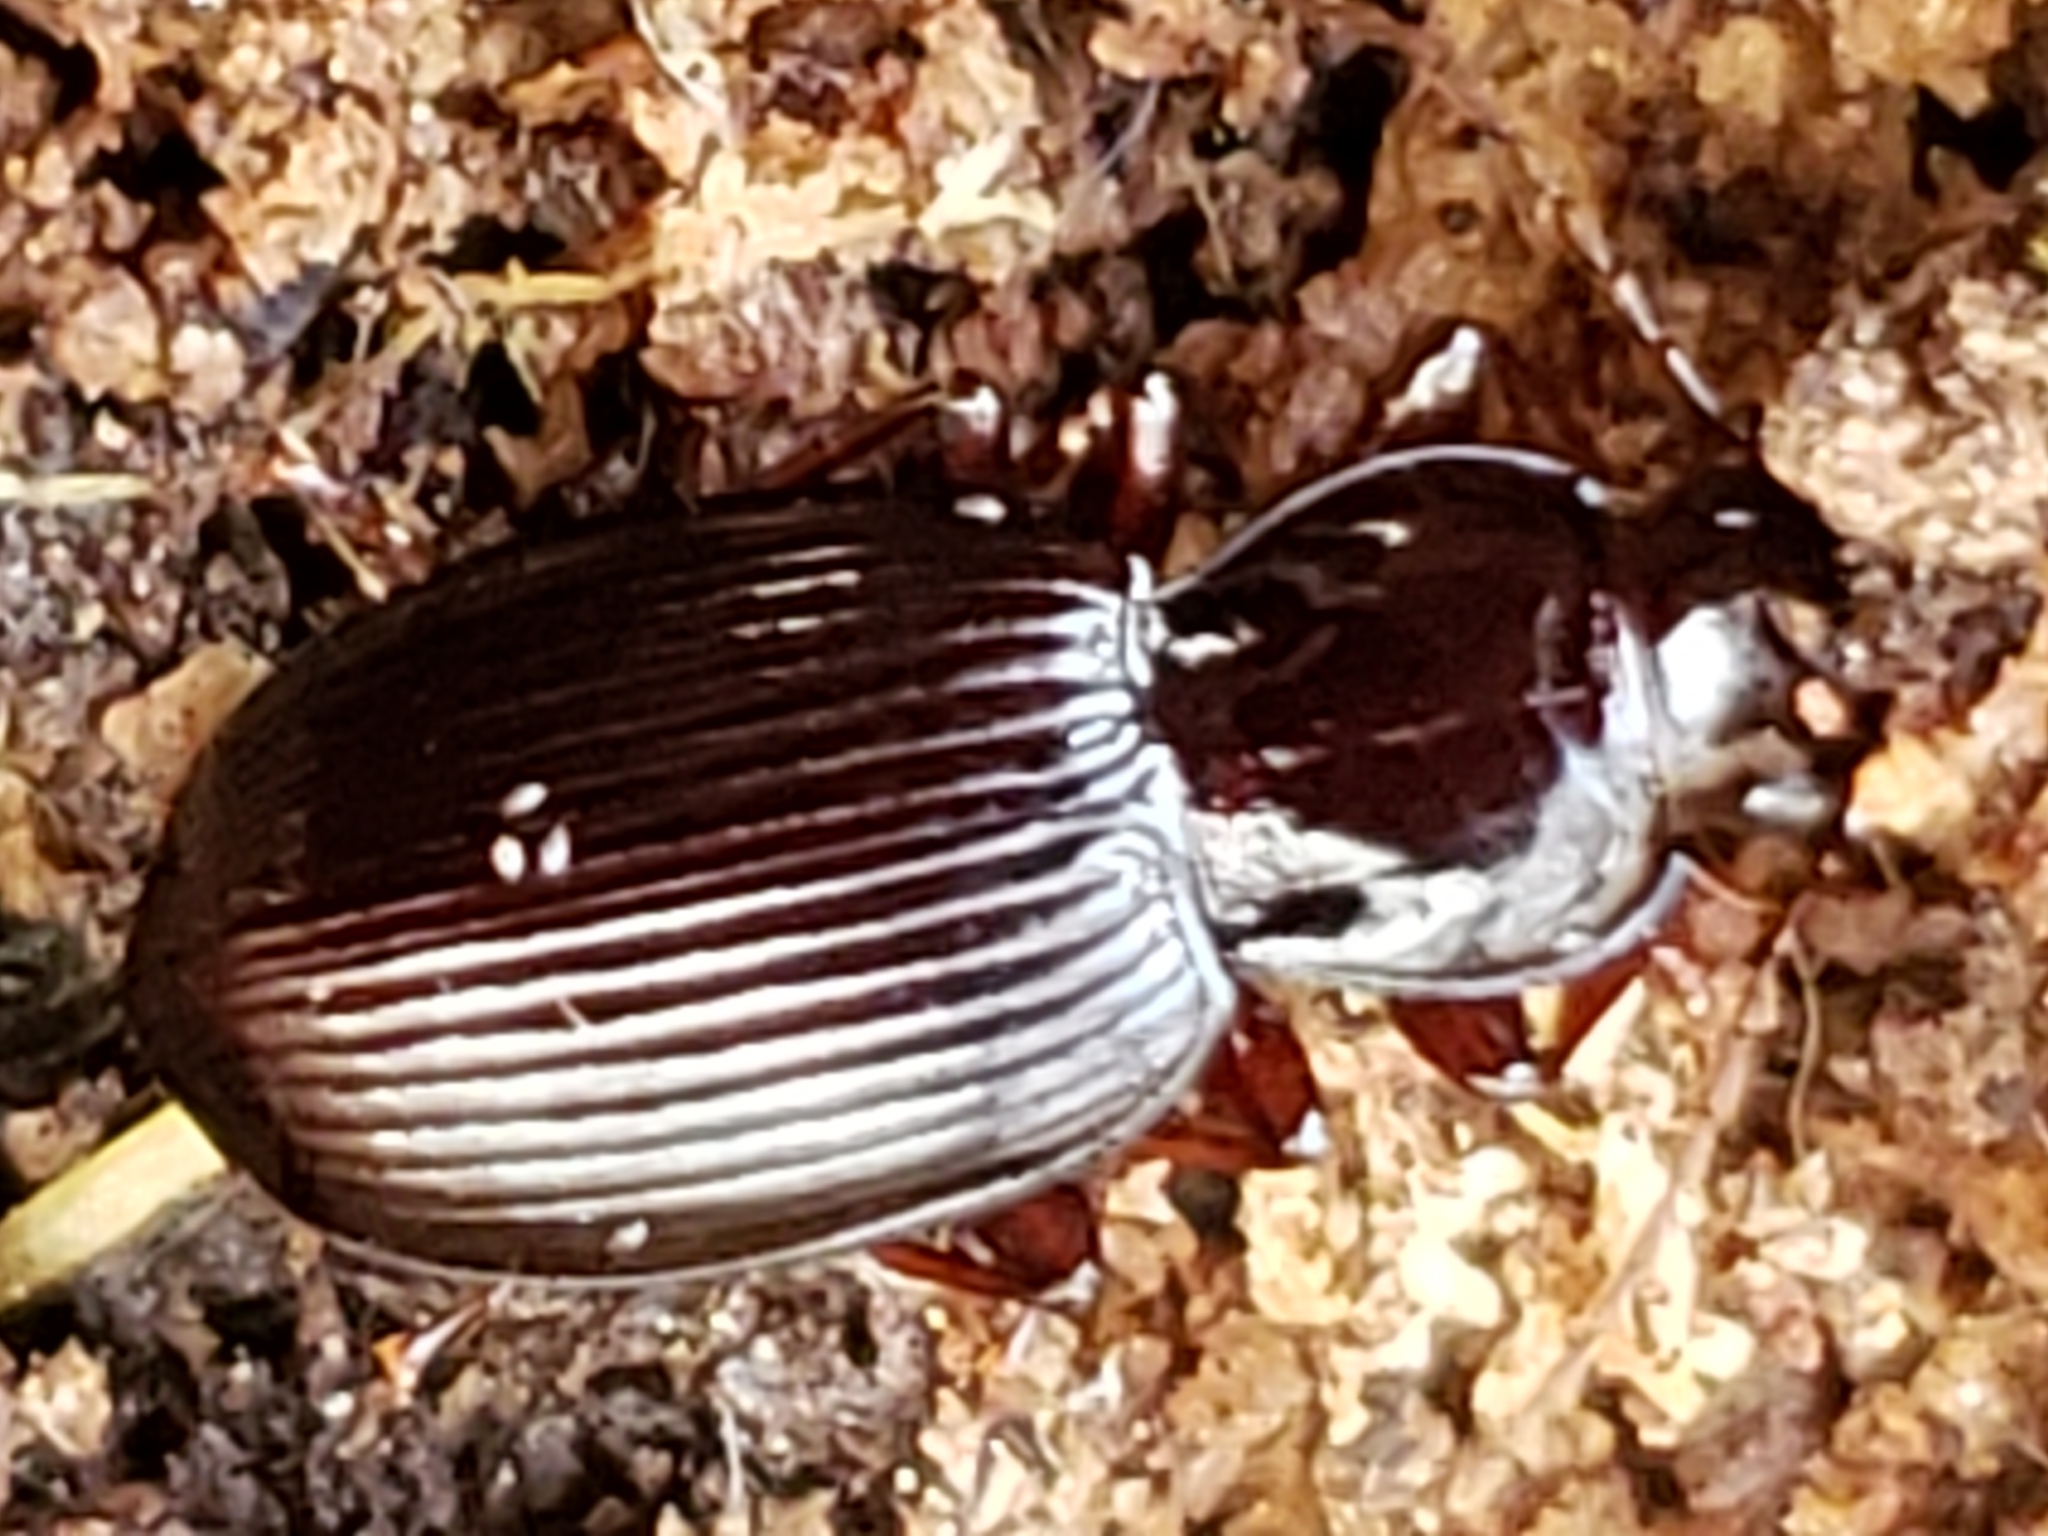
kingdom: Animalia
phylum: Arthropoda
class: Insecta
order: Coleoptera
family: Carabidae
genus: Gastrellarius
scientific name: Gastrellarius honestus
